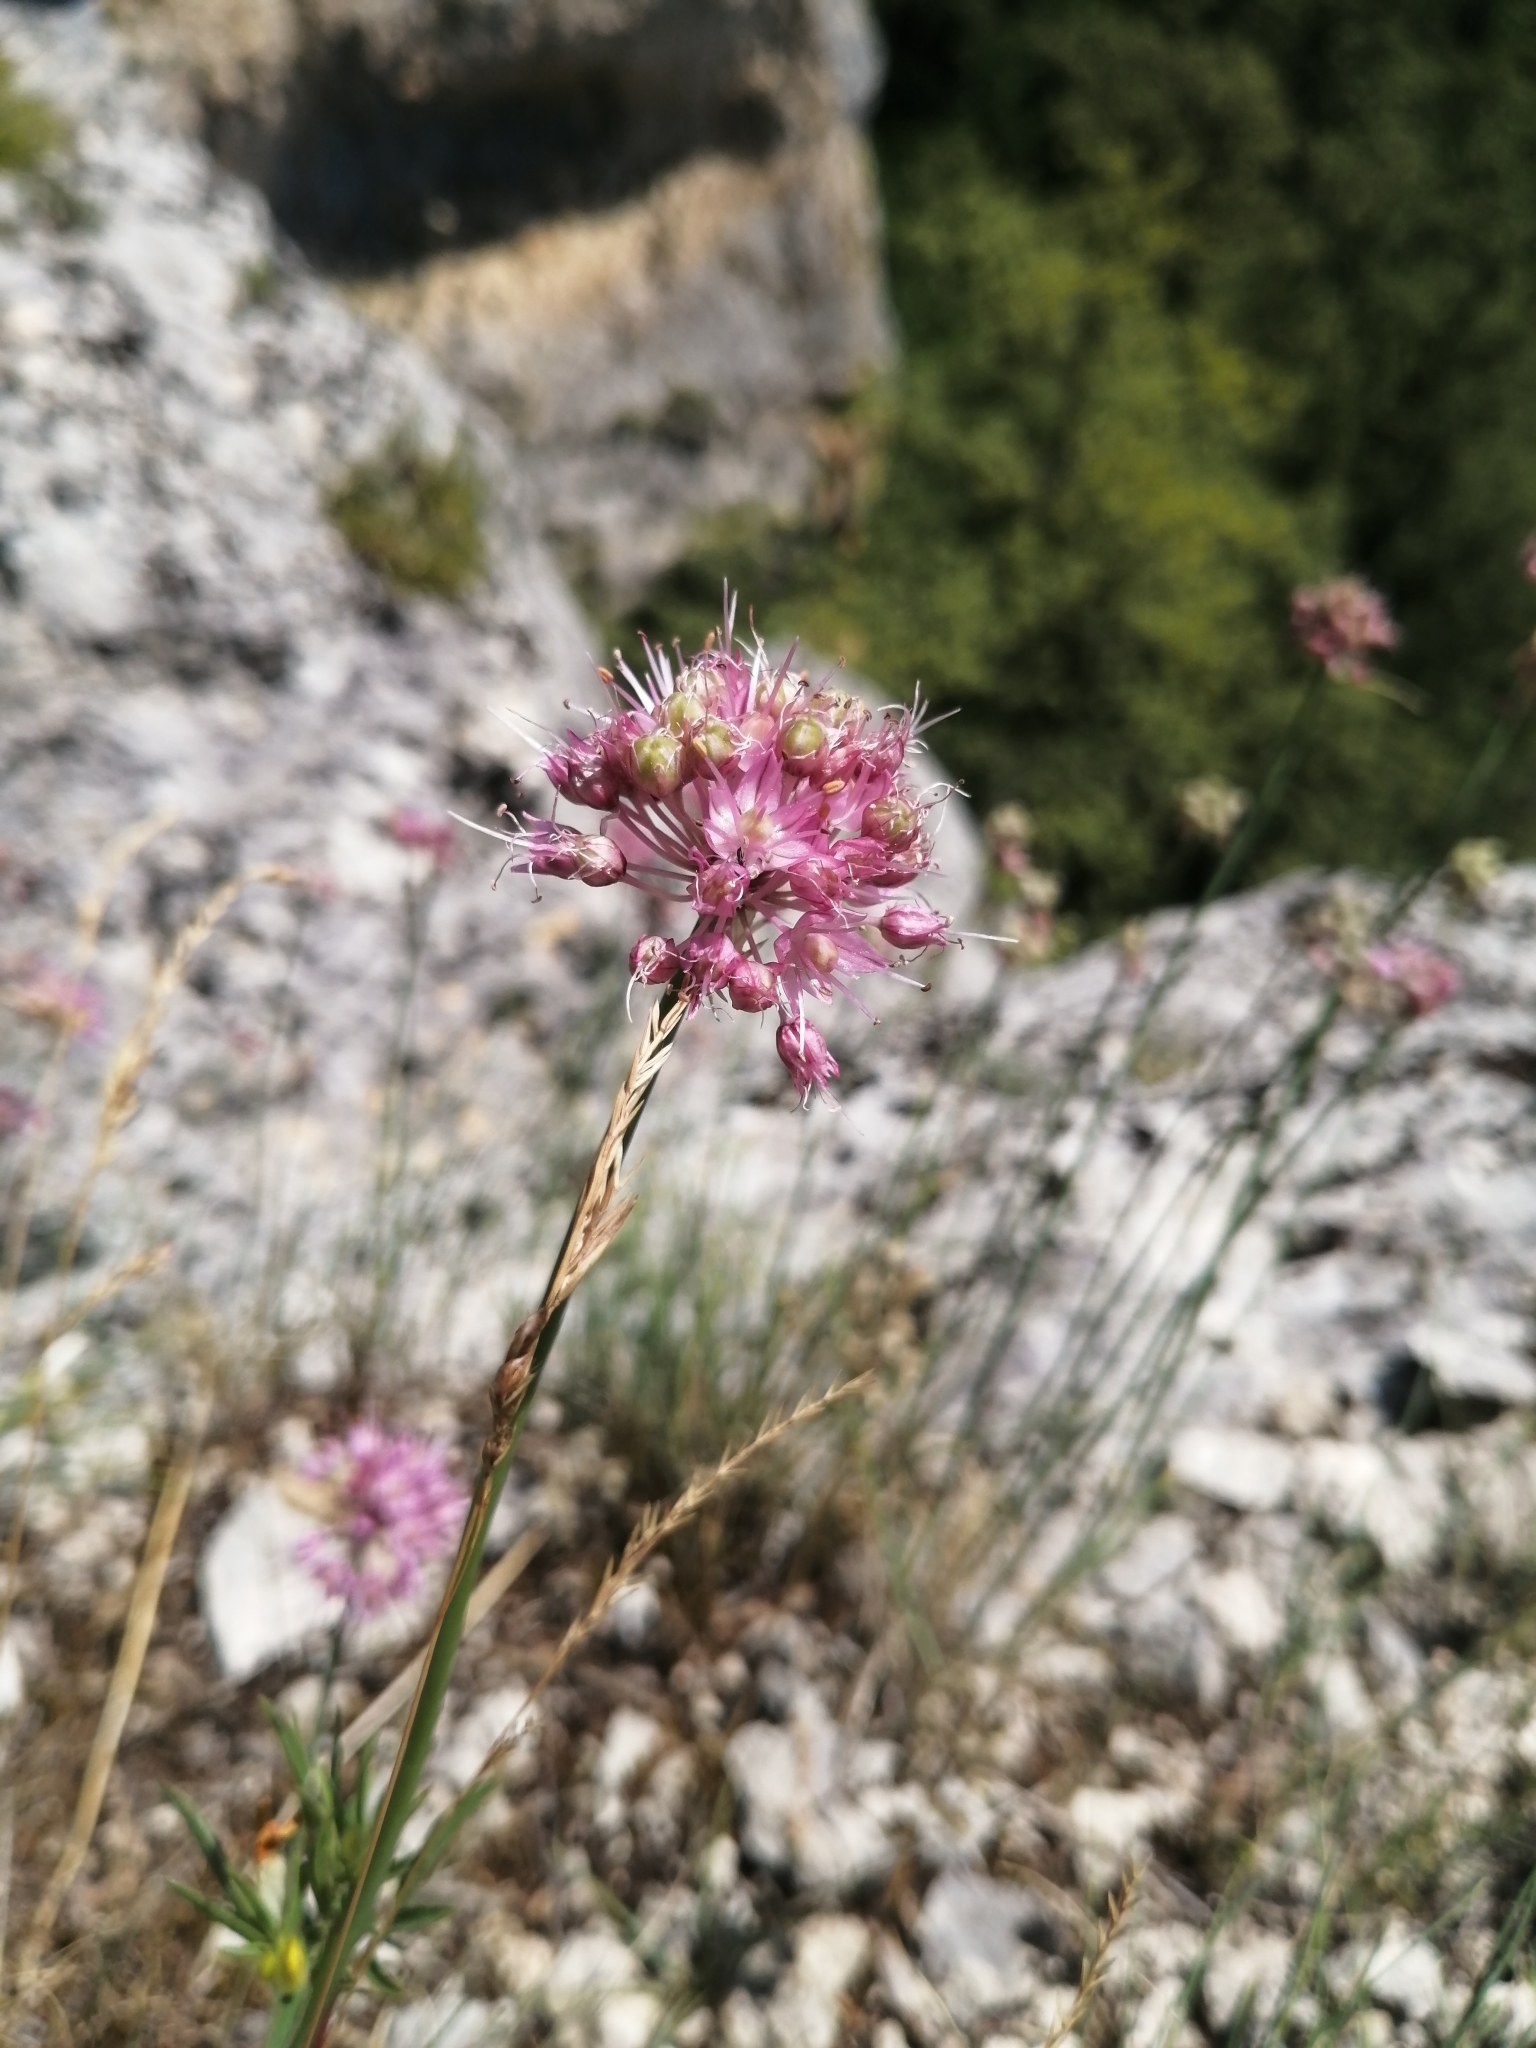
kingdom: Plantae
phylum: Tracheophyta
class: Liliopsida
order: Asparagales
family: Amaryllidaceae
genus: Allium
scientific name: Allium psebaicum
